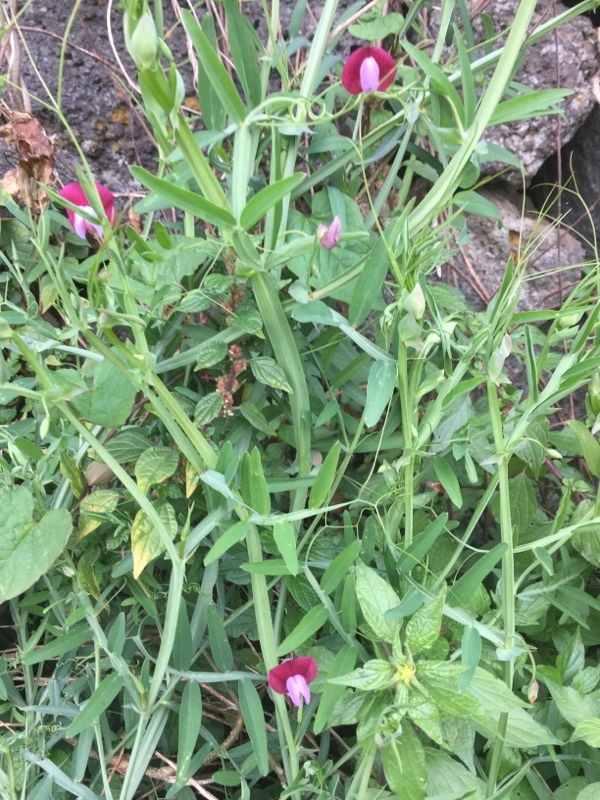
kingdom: Plantae
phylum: Tracheophyta
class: Magnoliopsida
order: Fabales
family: Fabaceae
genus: Lathyrus
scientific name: Lathyrus clymenum
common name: Spanish vetchling
